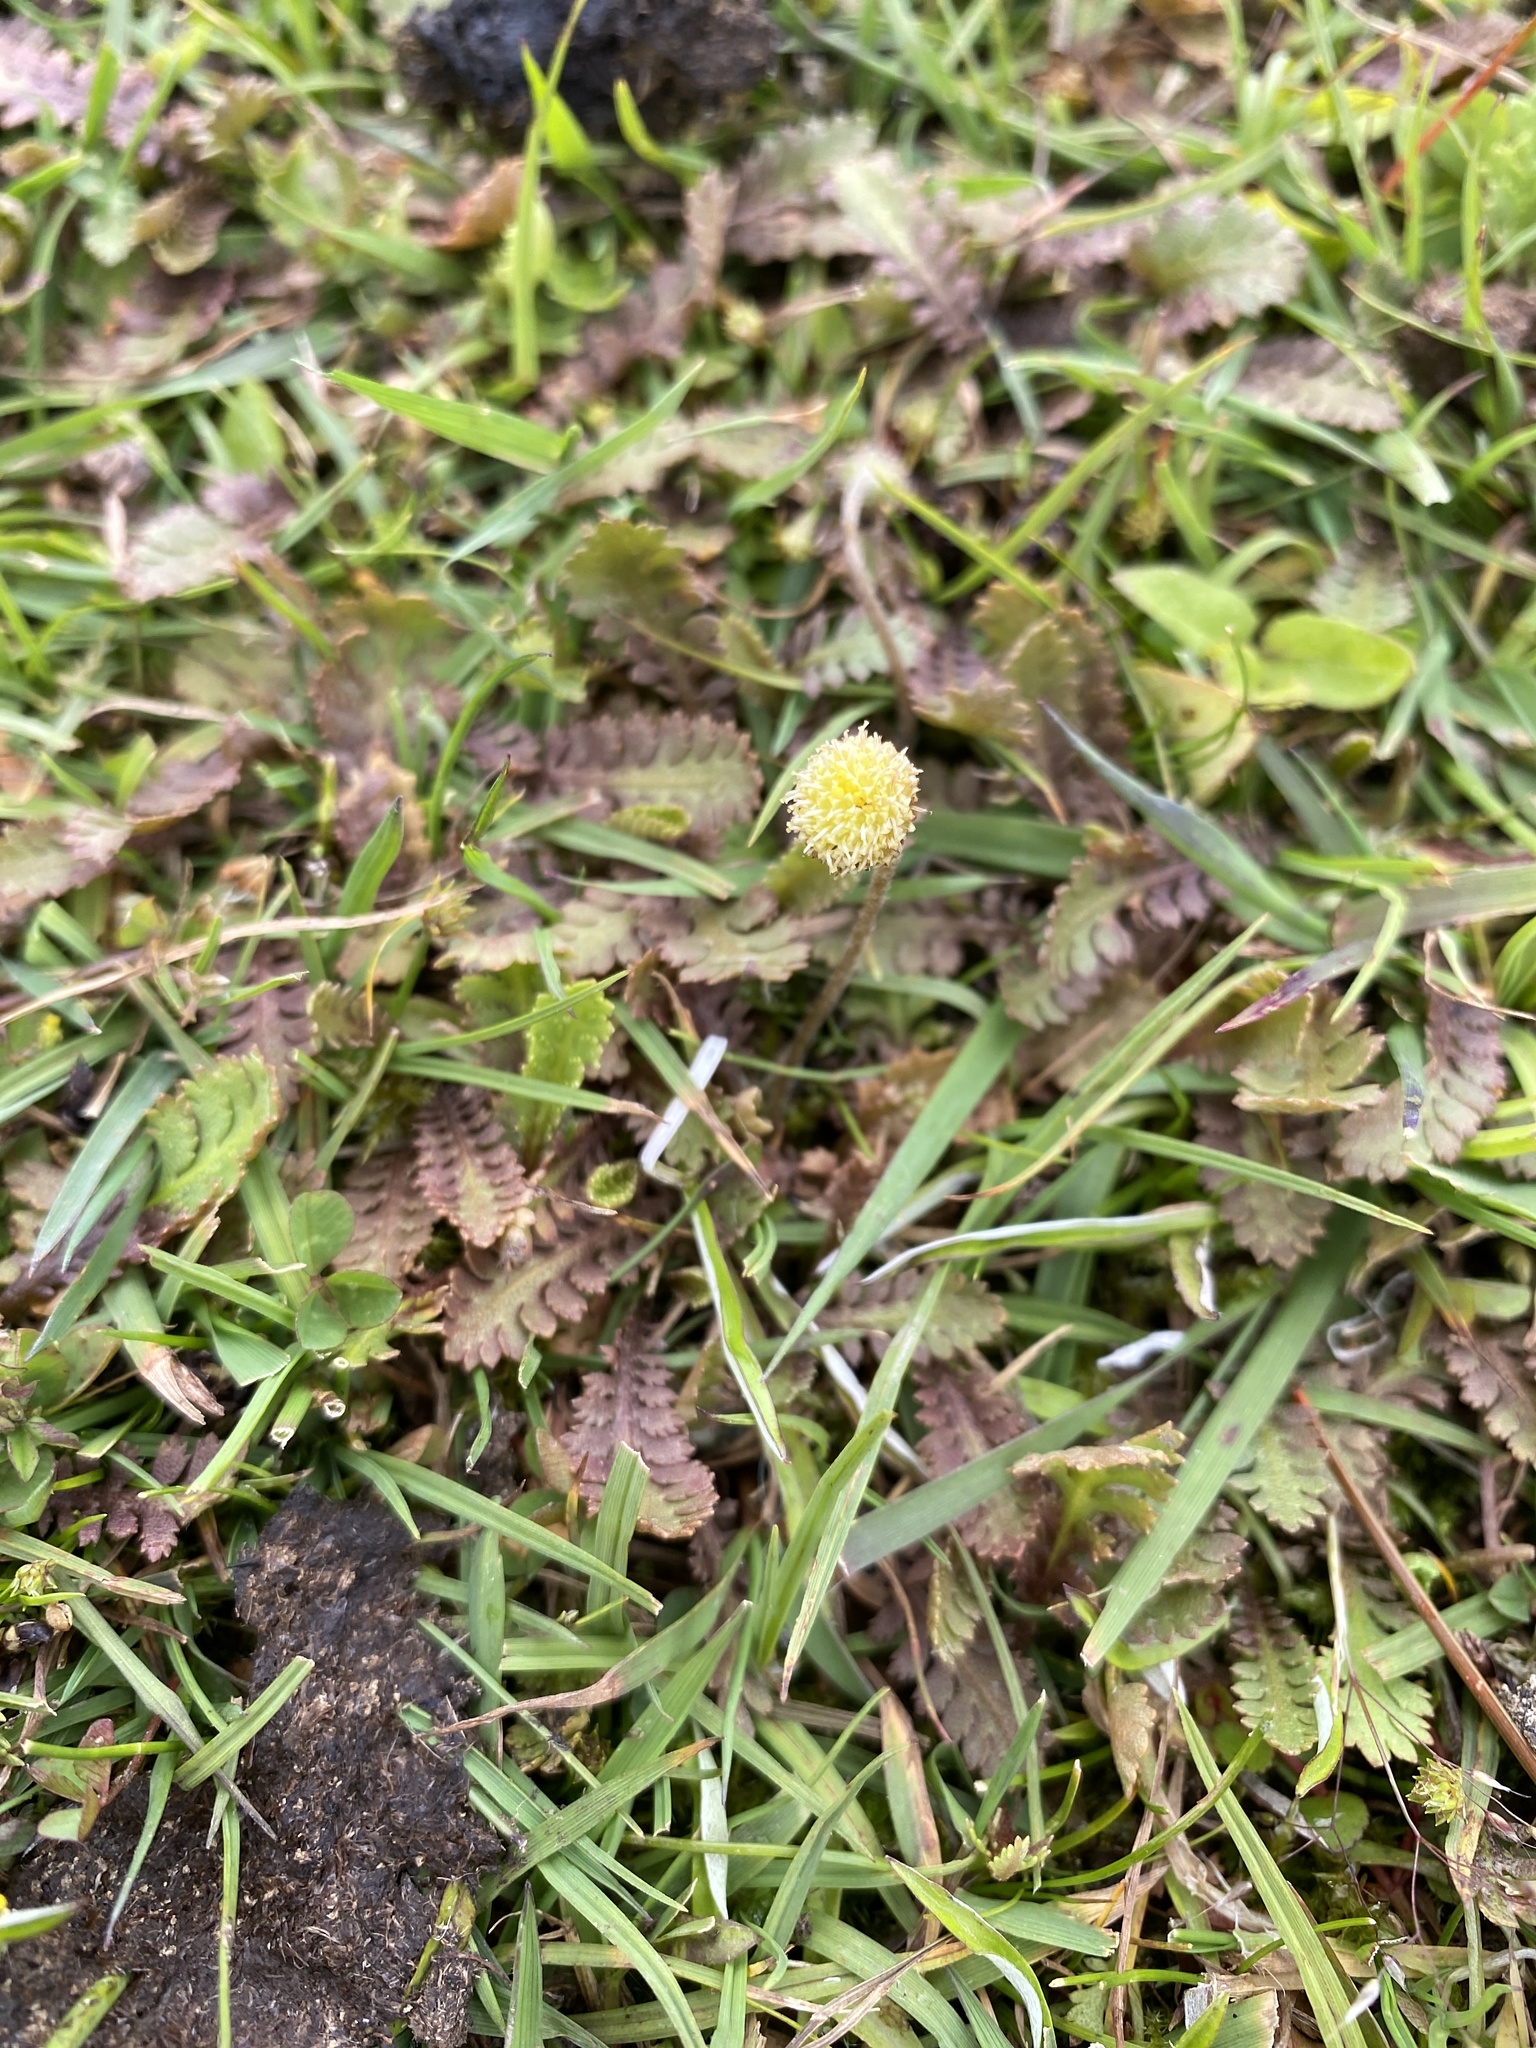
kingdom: Plantae
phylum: Tracheophyta
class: Magnoliopsida
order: Asterales
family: Asteraceae
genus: Leptinella
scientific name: Leptinella squalida
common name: New zealand brass-buttons
